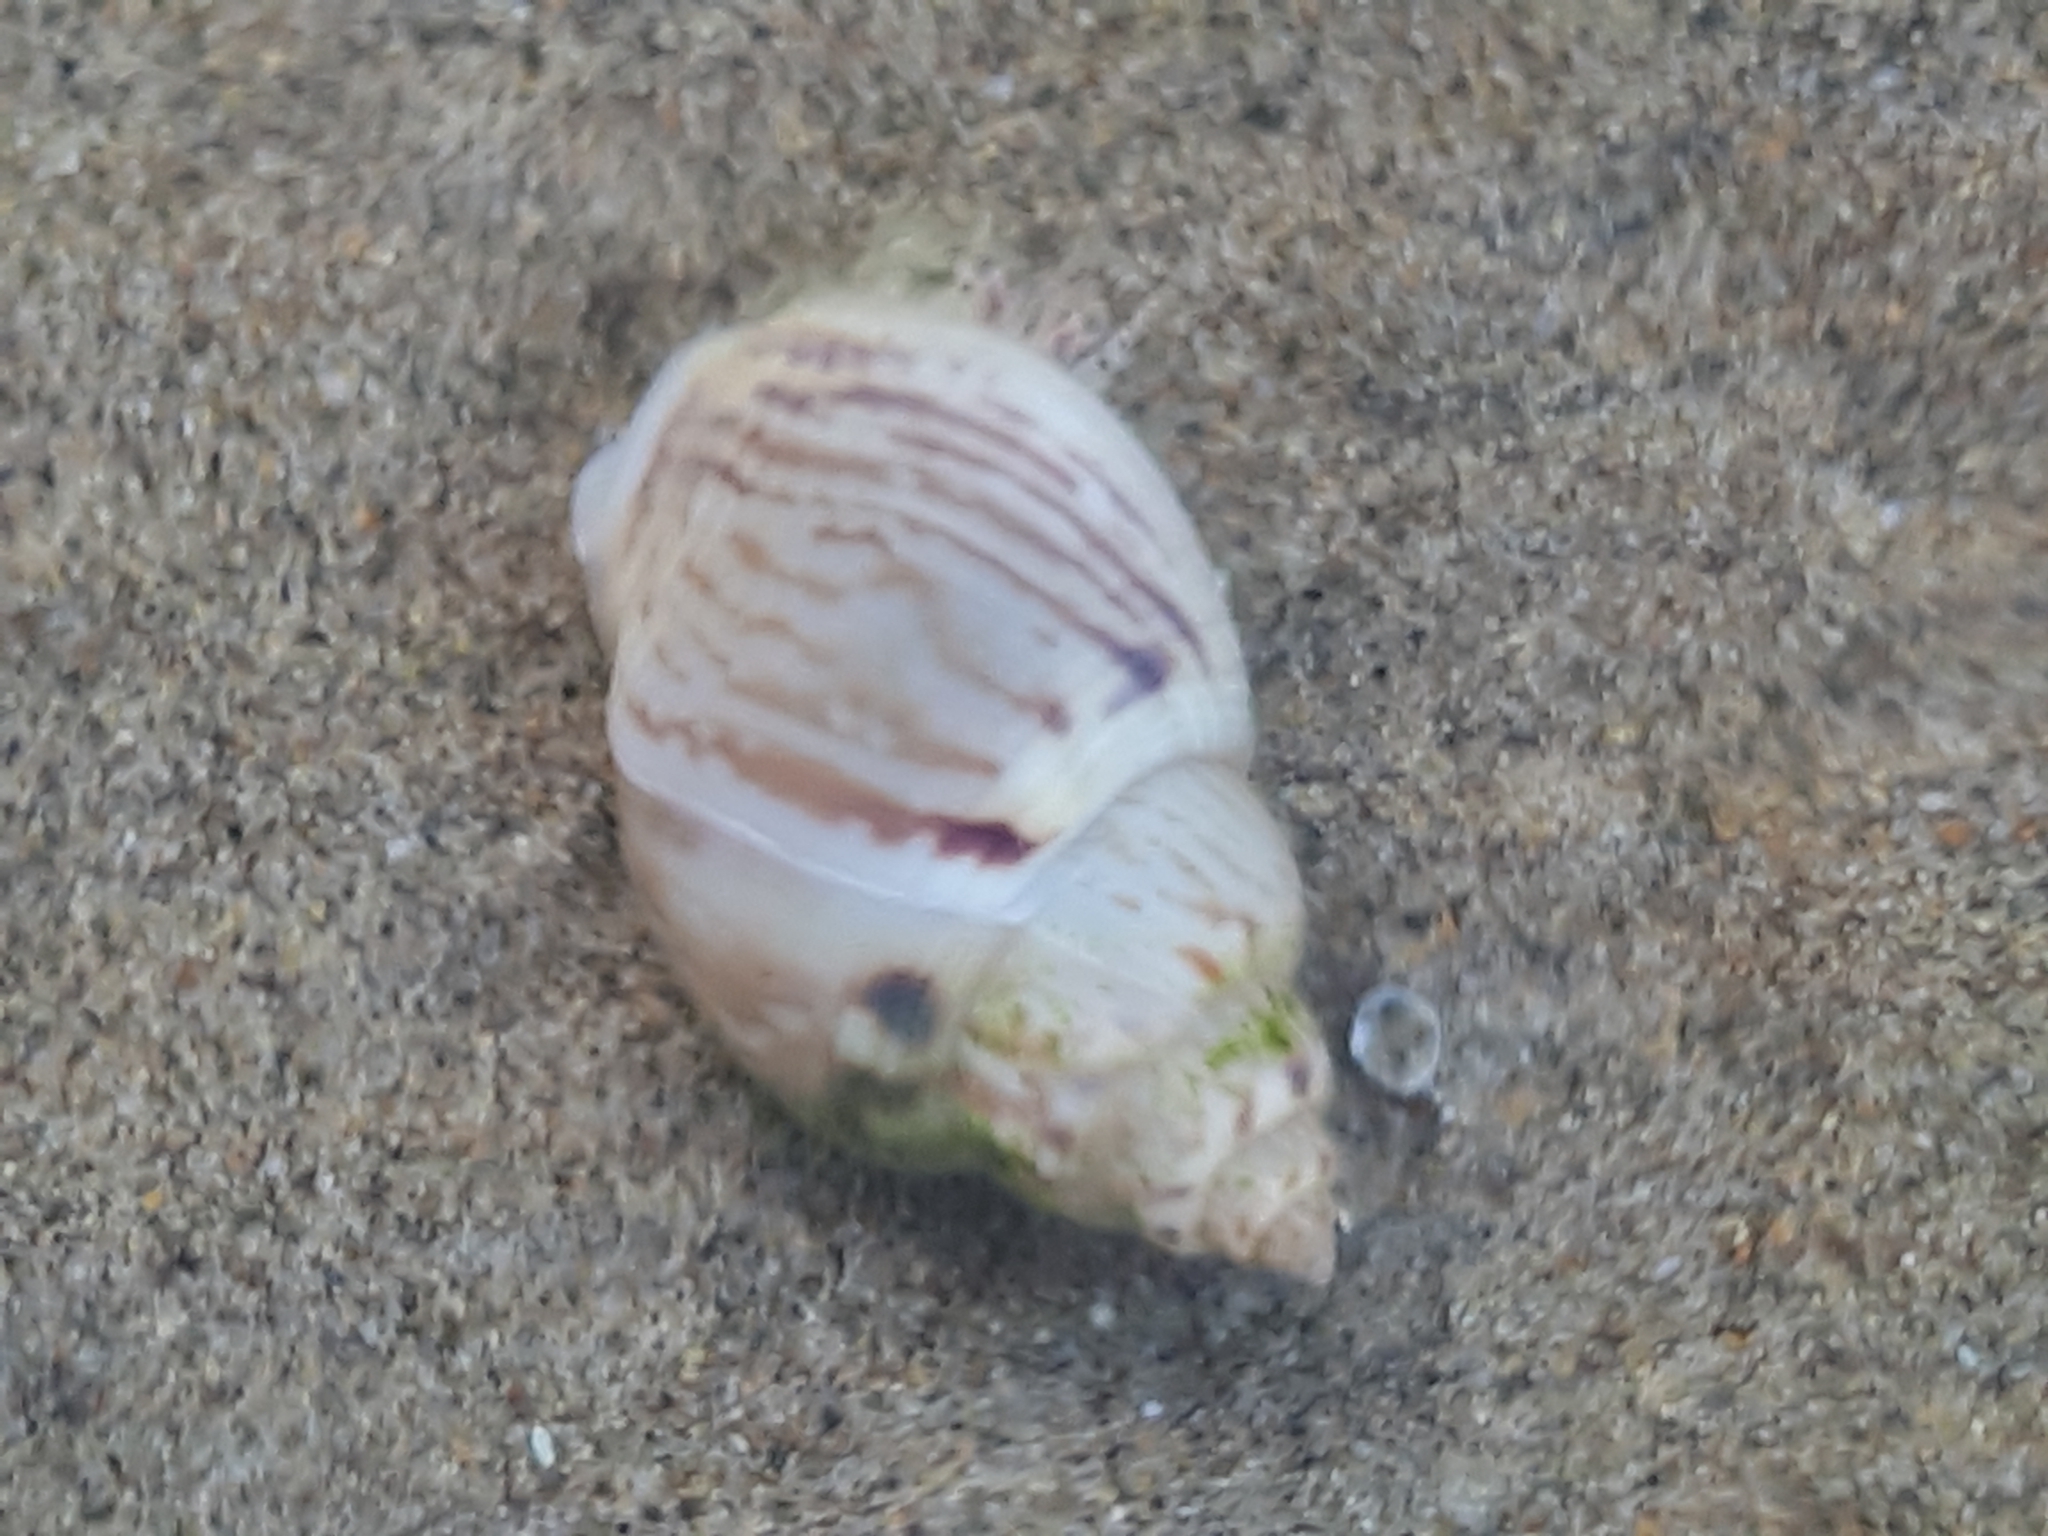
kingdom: Animalia
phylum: Mollusca
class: Gastropoda
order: Neogastropoda
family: Nassariidae
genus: Tritia
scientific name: Tritia mutabilis
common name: Mutable nassa
